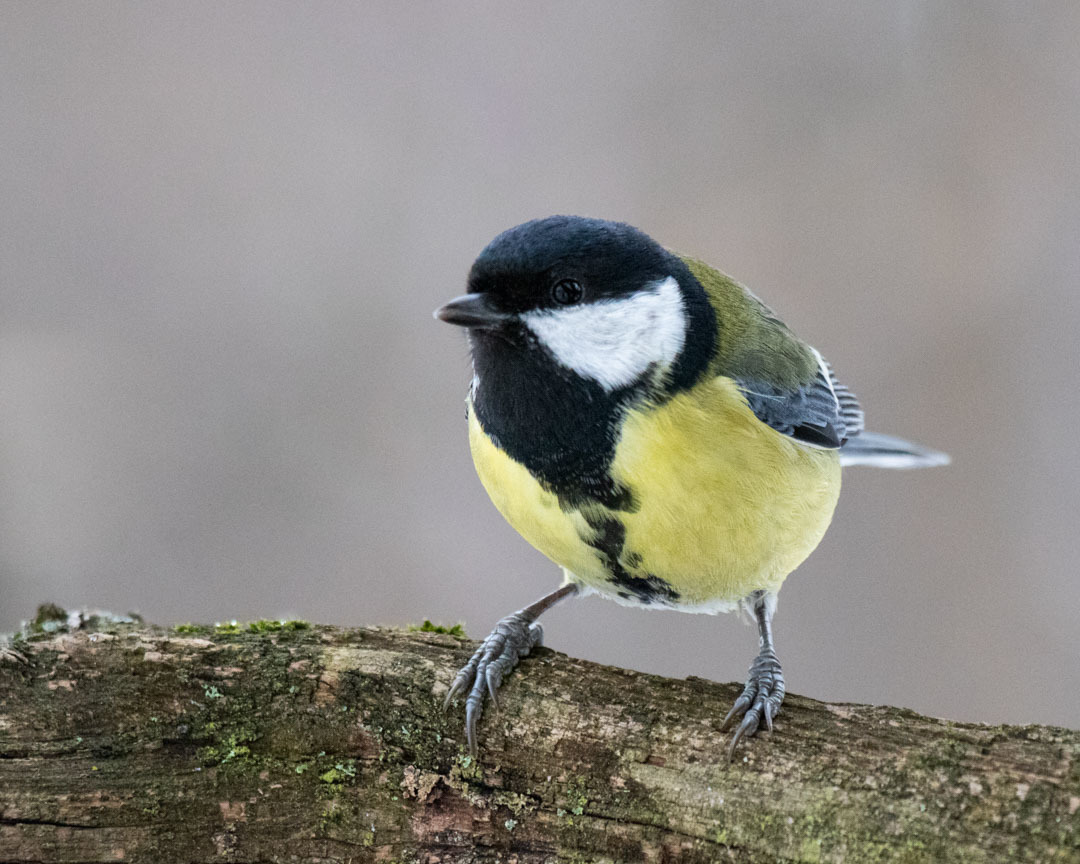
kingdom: Animalia
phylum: Chordata
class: Aves
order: Passeriformes
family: Paridae
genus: Parus
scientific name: Parus major
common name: Great tit
